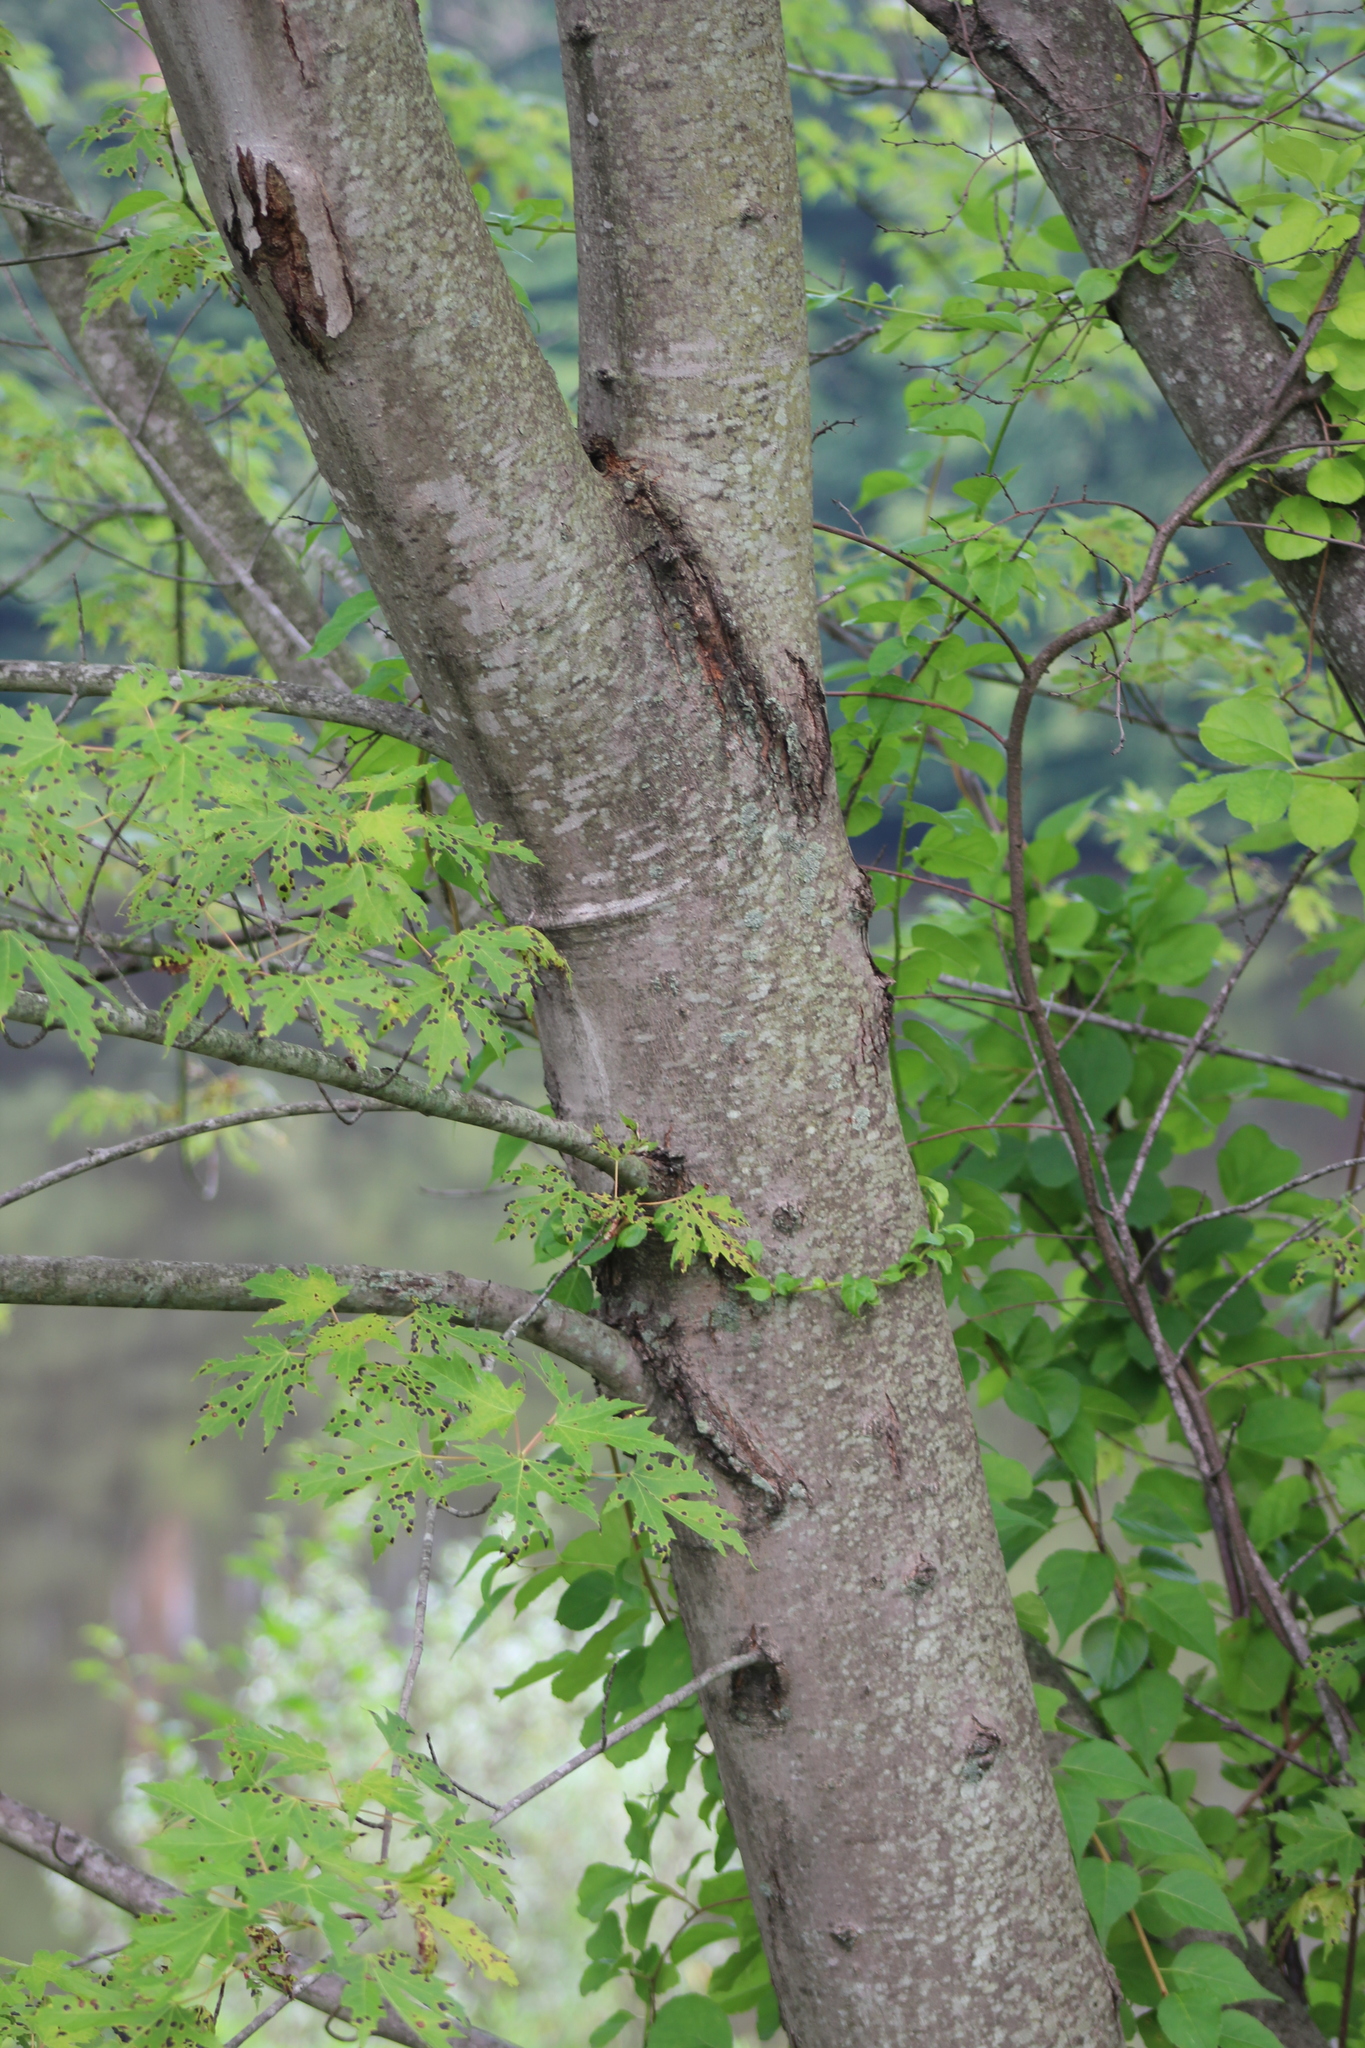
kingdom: Plantae
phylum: Tracheophyta
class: Magnoliopsida
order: Sapindales
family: Sapindaceae
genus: Acer
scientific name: Acer saccharinum
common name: Silver maple
